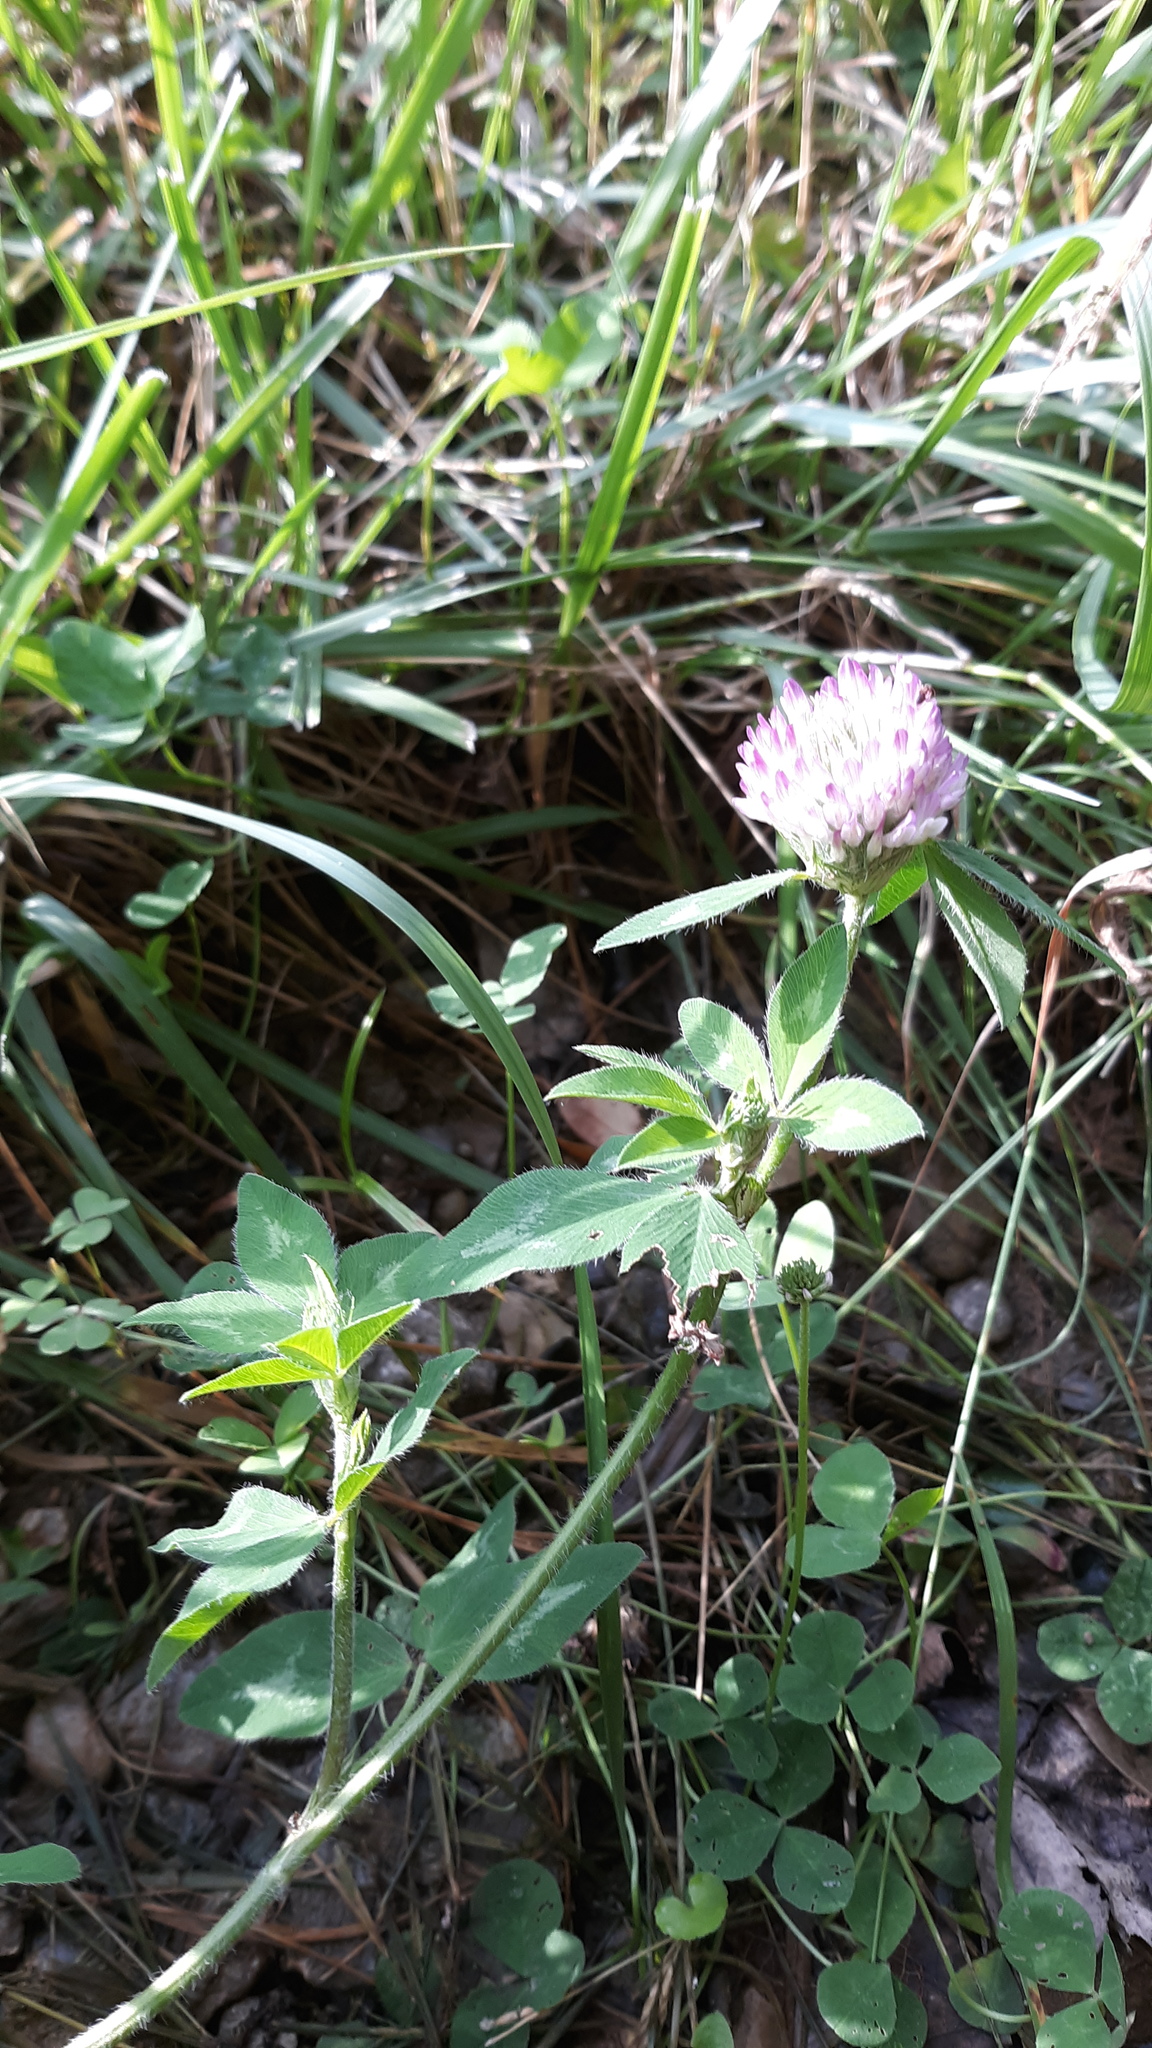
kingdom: Plantae
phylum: Tracheophyta
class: Magnoliopsida
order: Fabales
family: Fabaceae
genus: Trifolium
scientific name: Trifolium pratense
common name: Red clover
